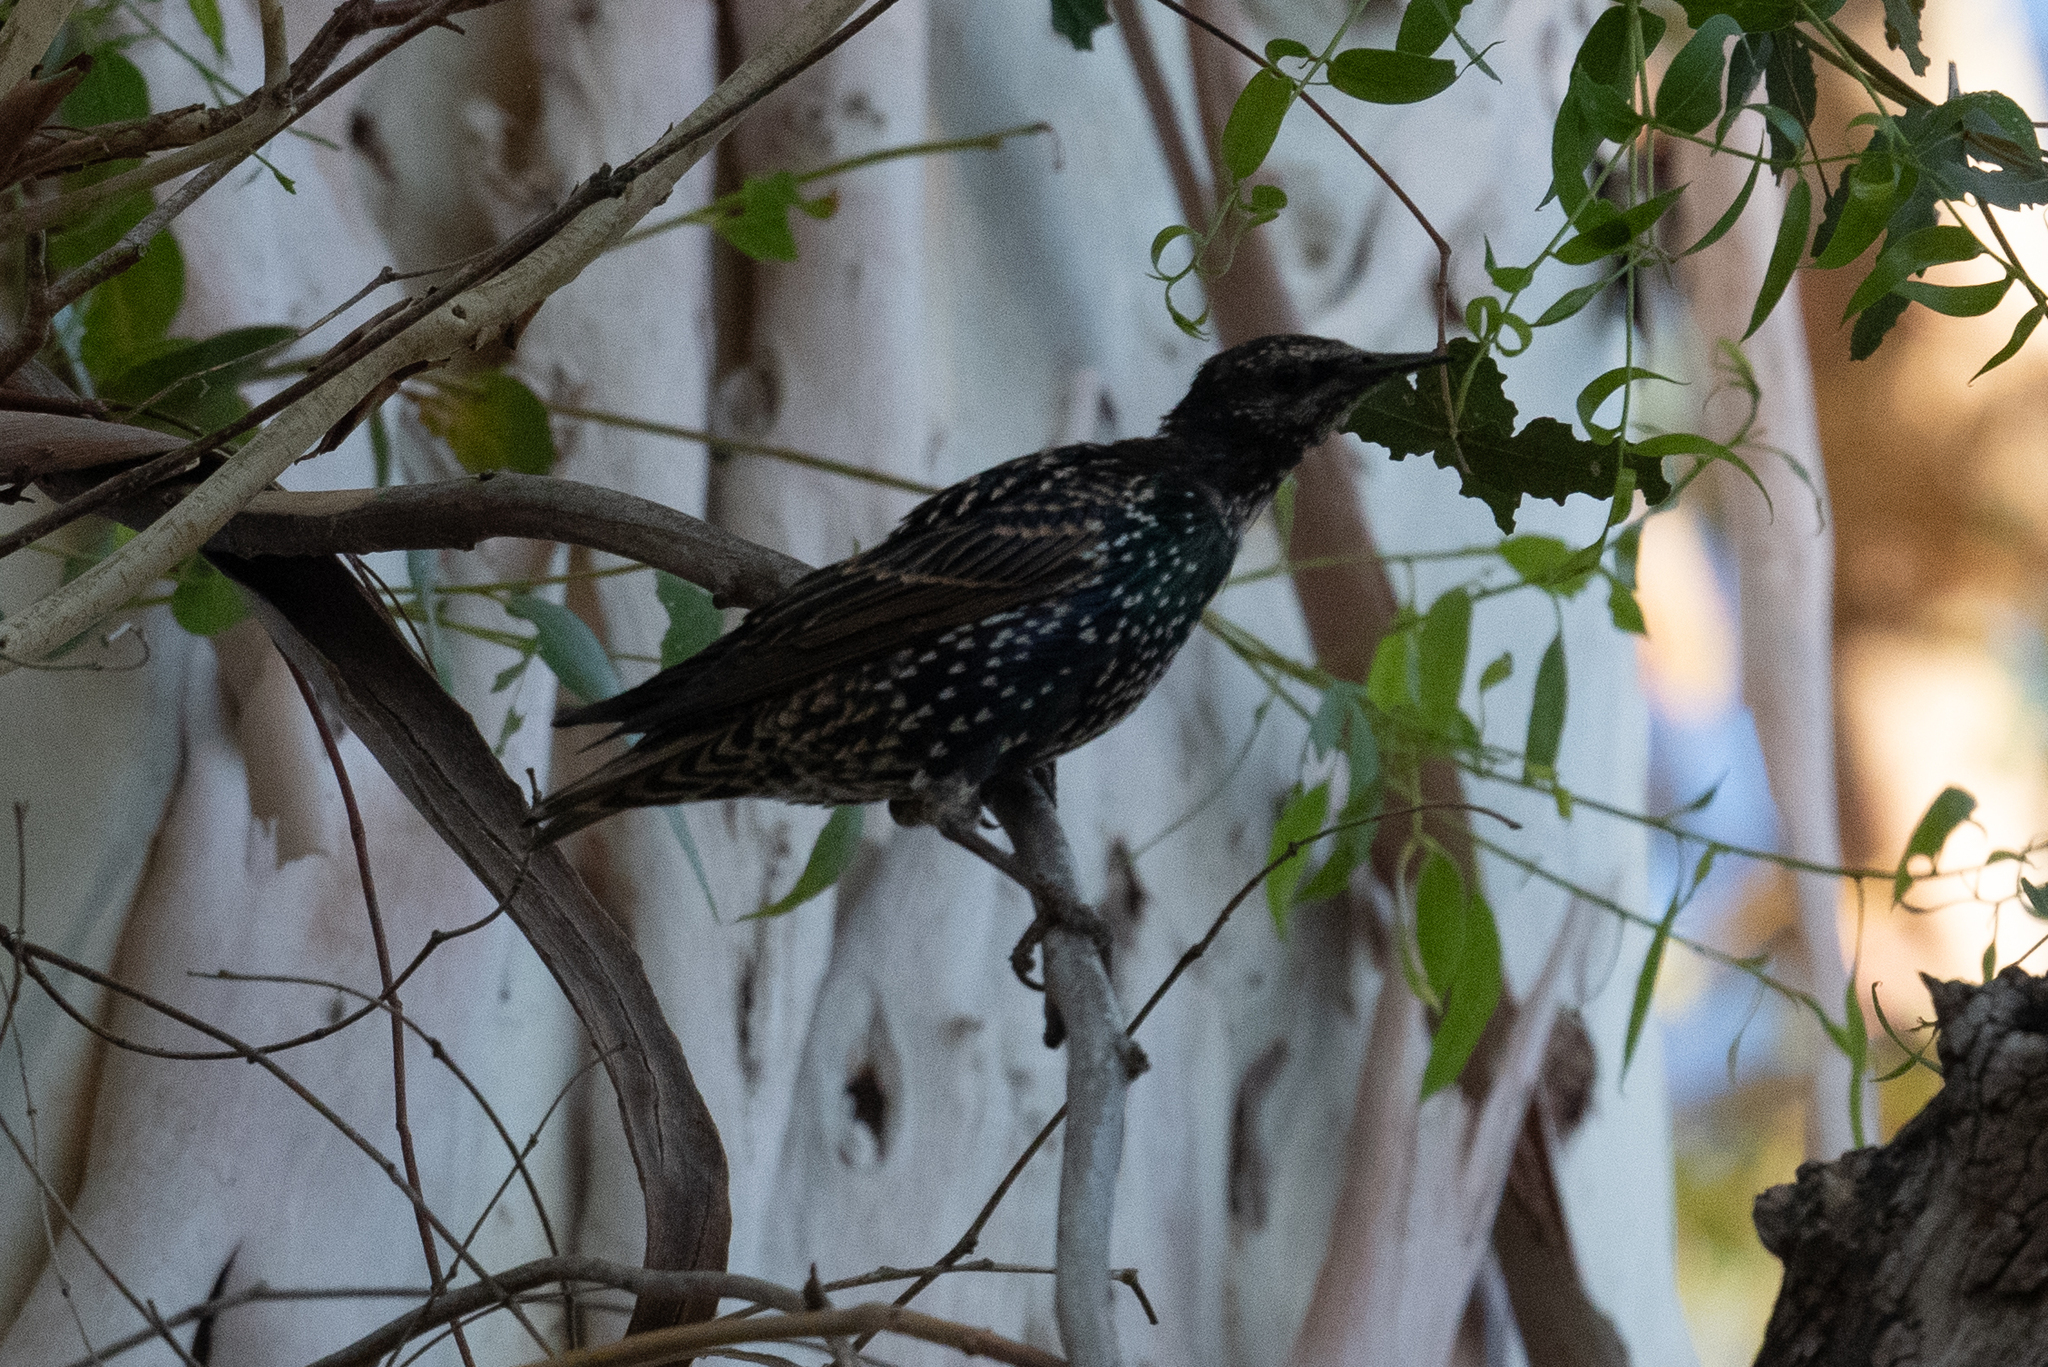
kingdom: Animalia
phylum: Chordata
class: Aves
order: Passeriformes
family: Sturnidae
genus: Sturnus
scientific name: Sturnus vulgaris
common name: Common starling
